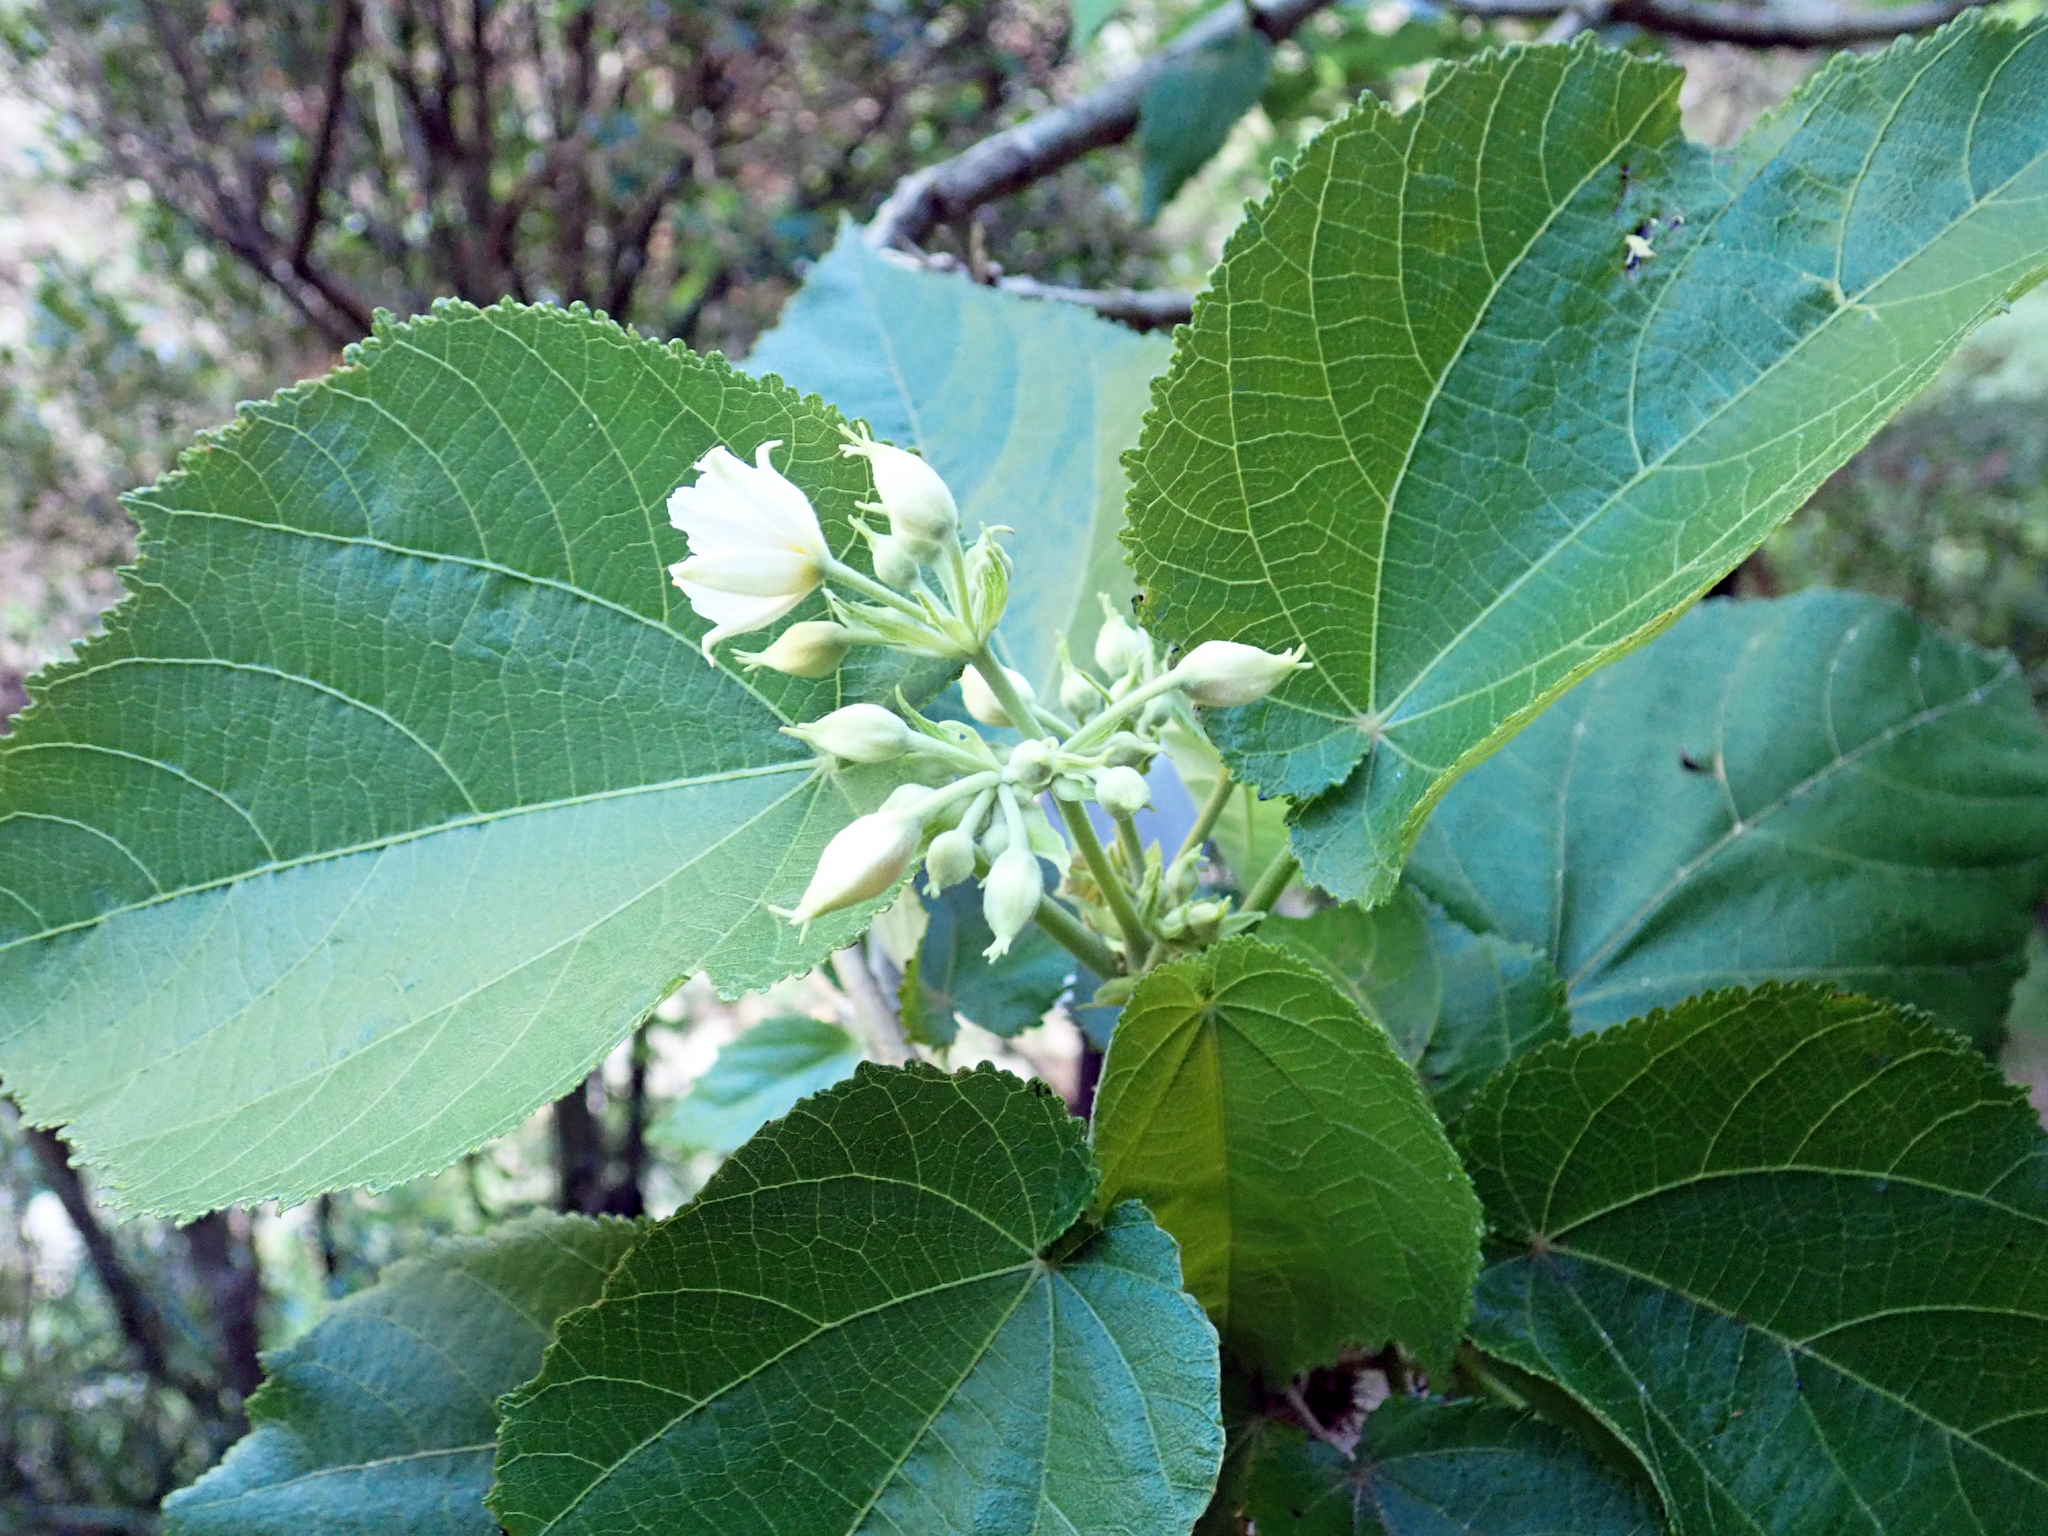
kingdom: Plantae
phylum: Tracheophyta
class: Magnoliopsida
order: Malvales
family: Malvaceae
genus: Entelea
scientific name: Entelea arborescens
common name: New zealand-mulberry
